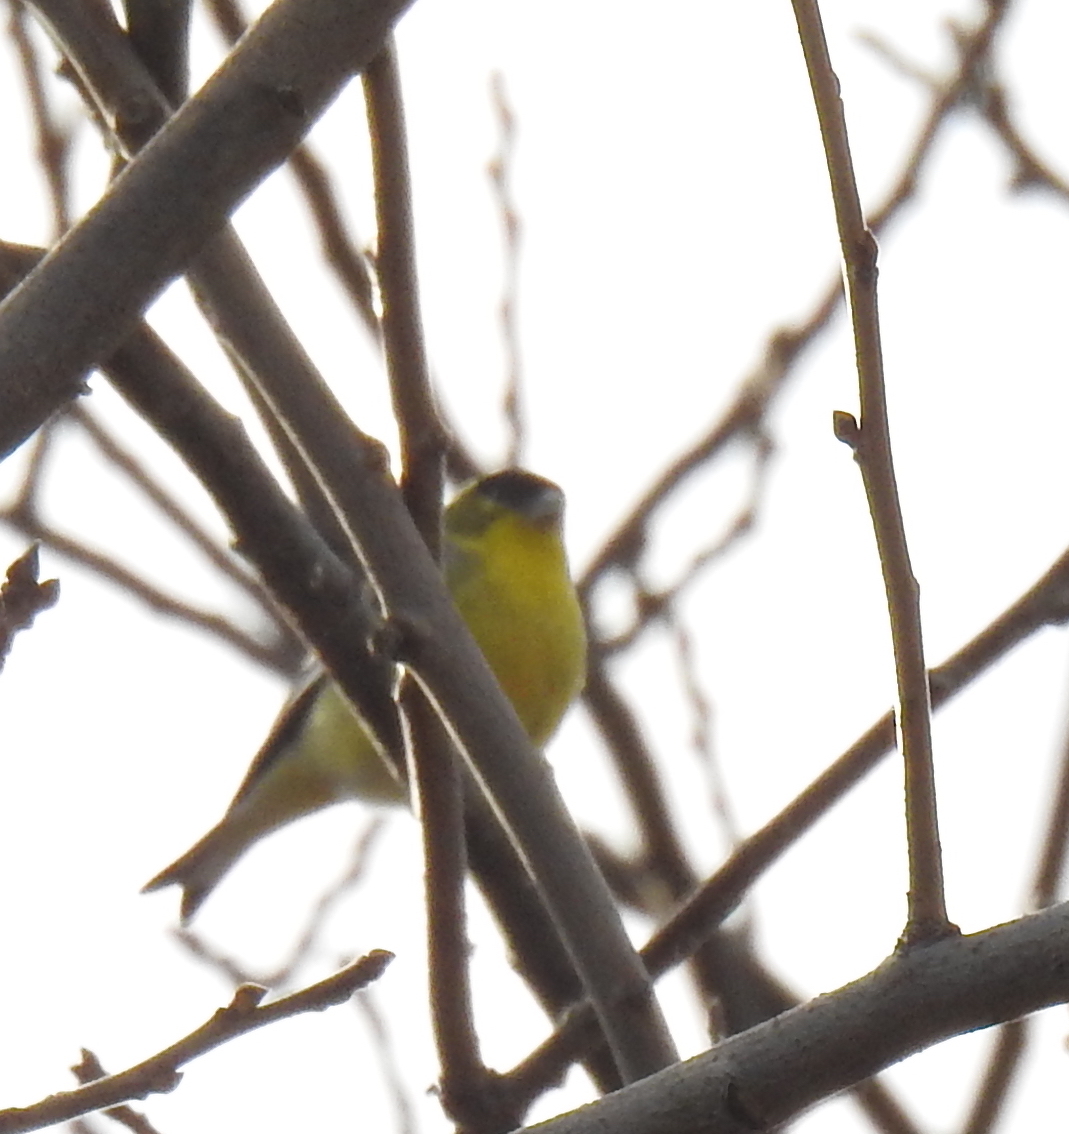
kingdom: Animalia
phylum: Chordata
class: Aves
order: Passeriformes
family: Fringillidae
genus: Spinus
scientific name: Spinus psaltria
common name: Lesser goldfinch
